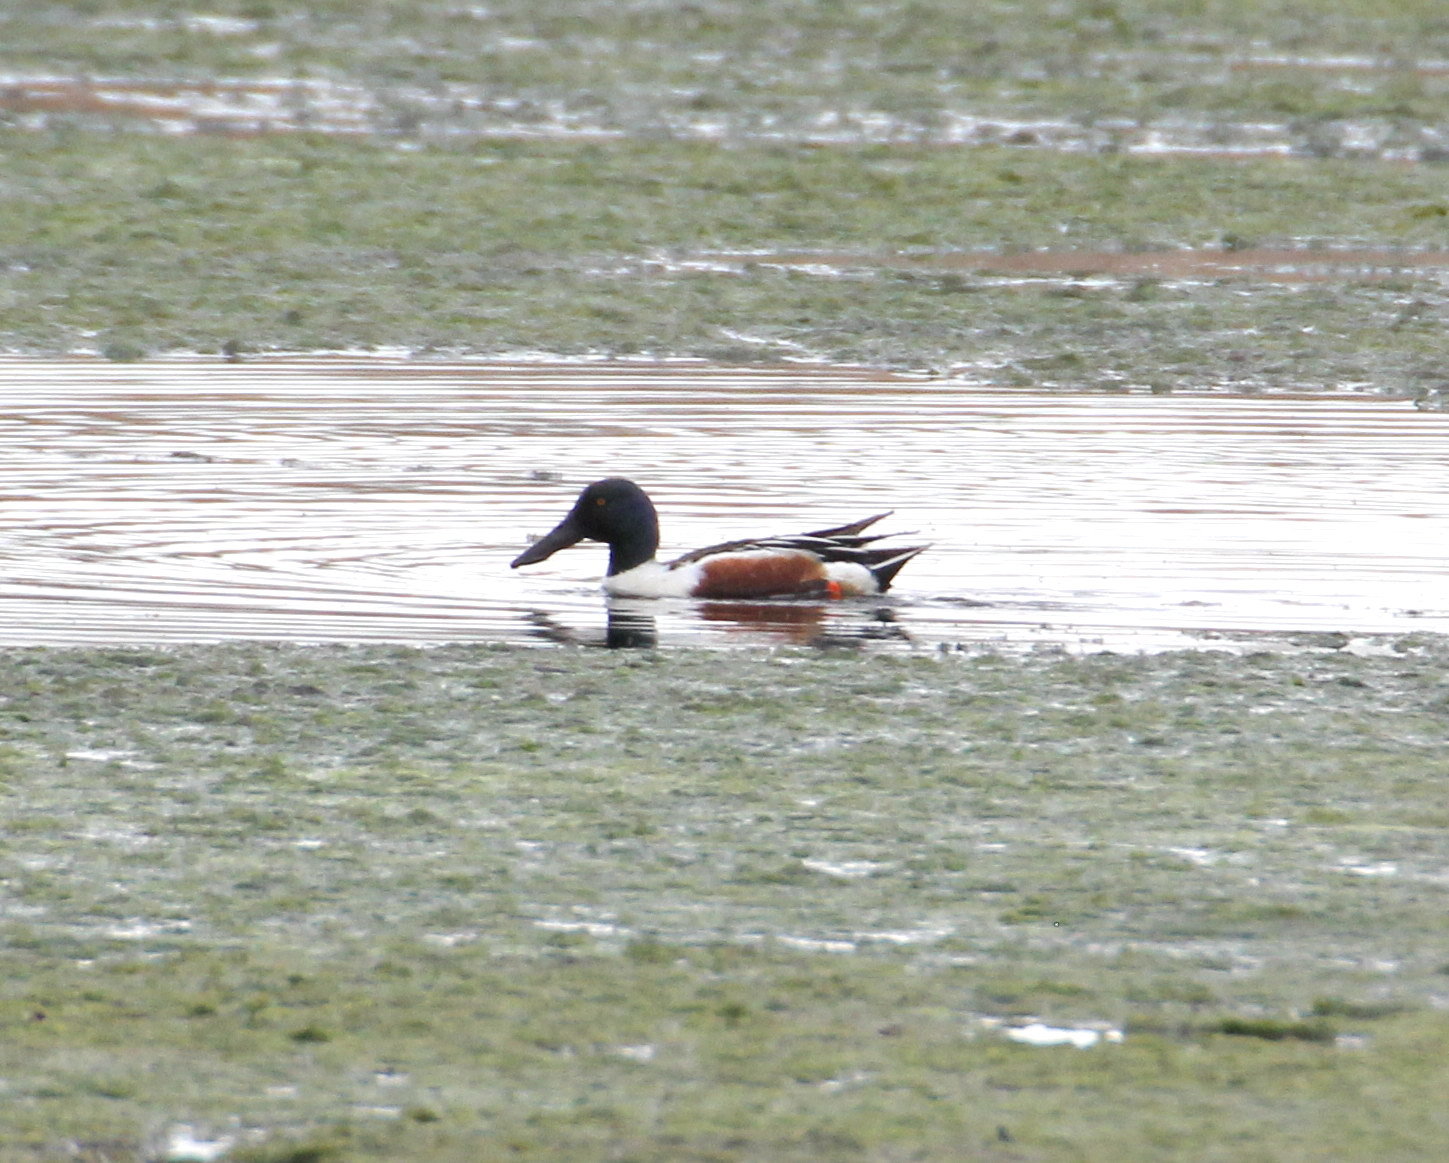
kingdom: Animalia
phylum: Chordata
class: Aves
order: Anseriformes
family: Anatidae
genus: Spatula
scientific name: Spatula clypeata
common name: Northern shoveler
